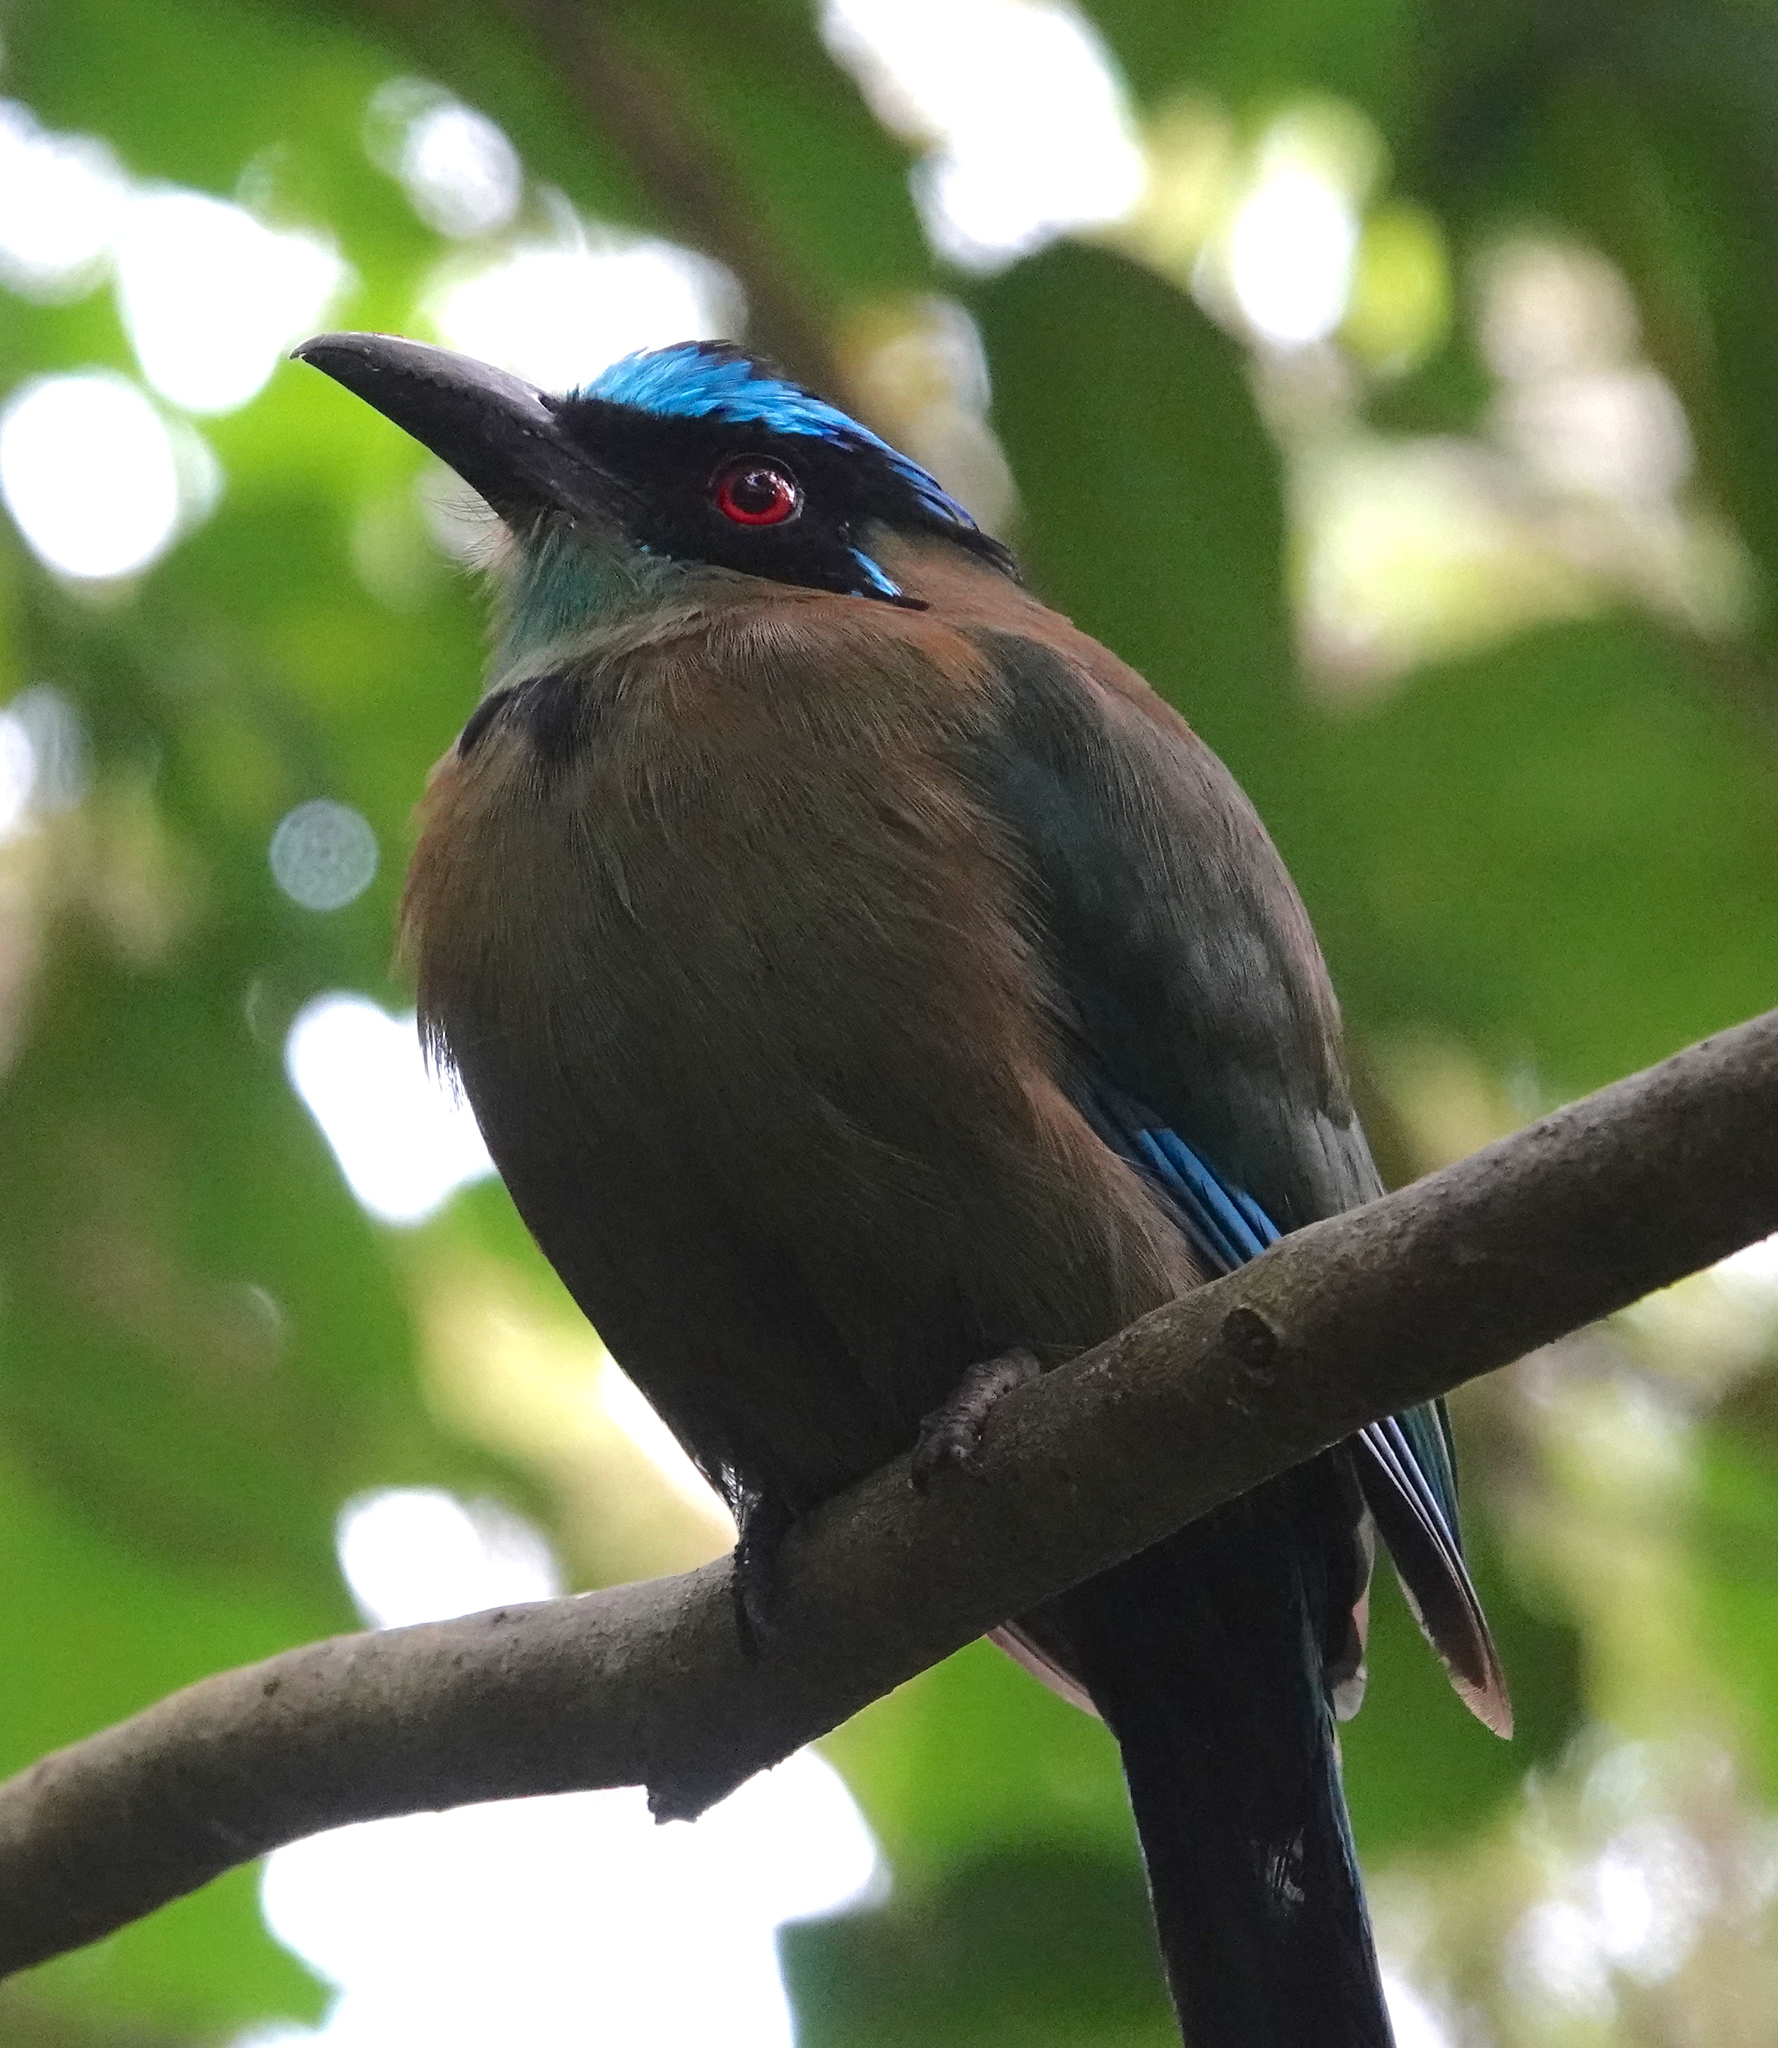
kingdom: Animalia
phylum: Chordata
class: Aves
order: Coraciiformes
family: Momotidae
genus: Momotus
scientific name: Momotus aequatorialis
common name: Andean motmot
